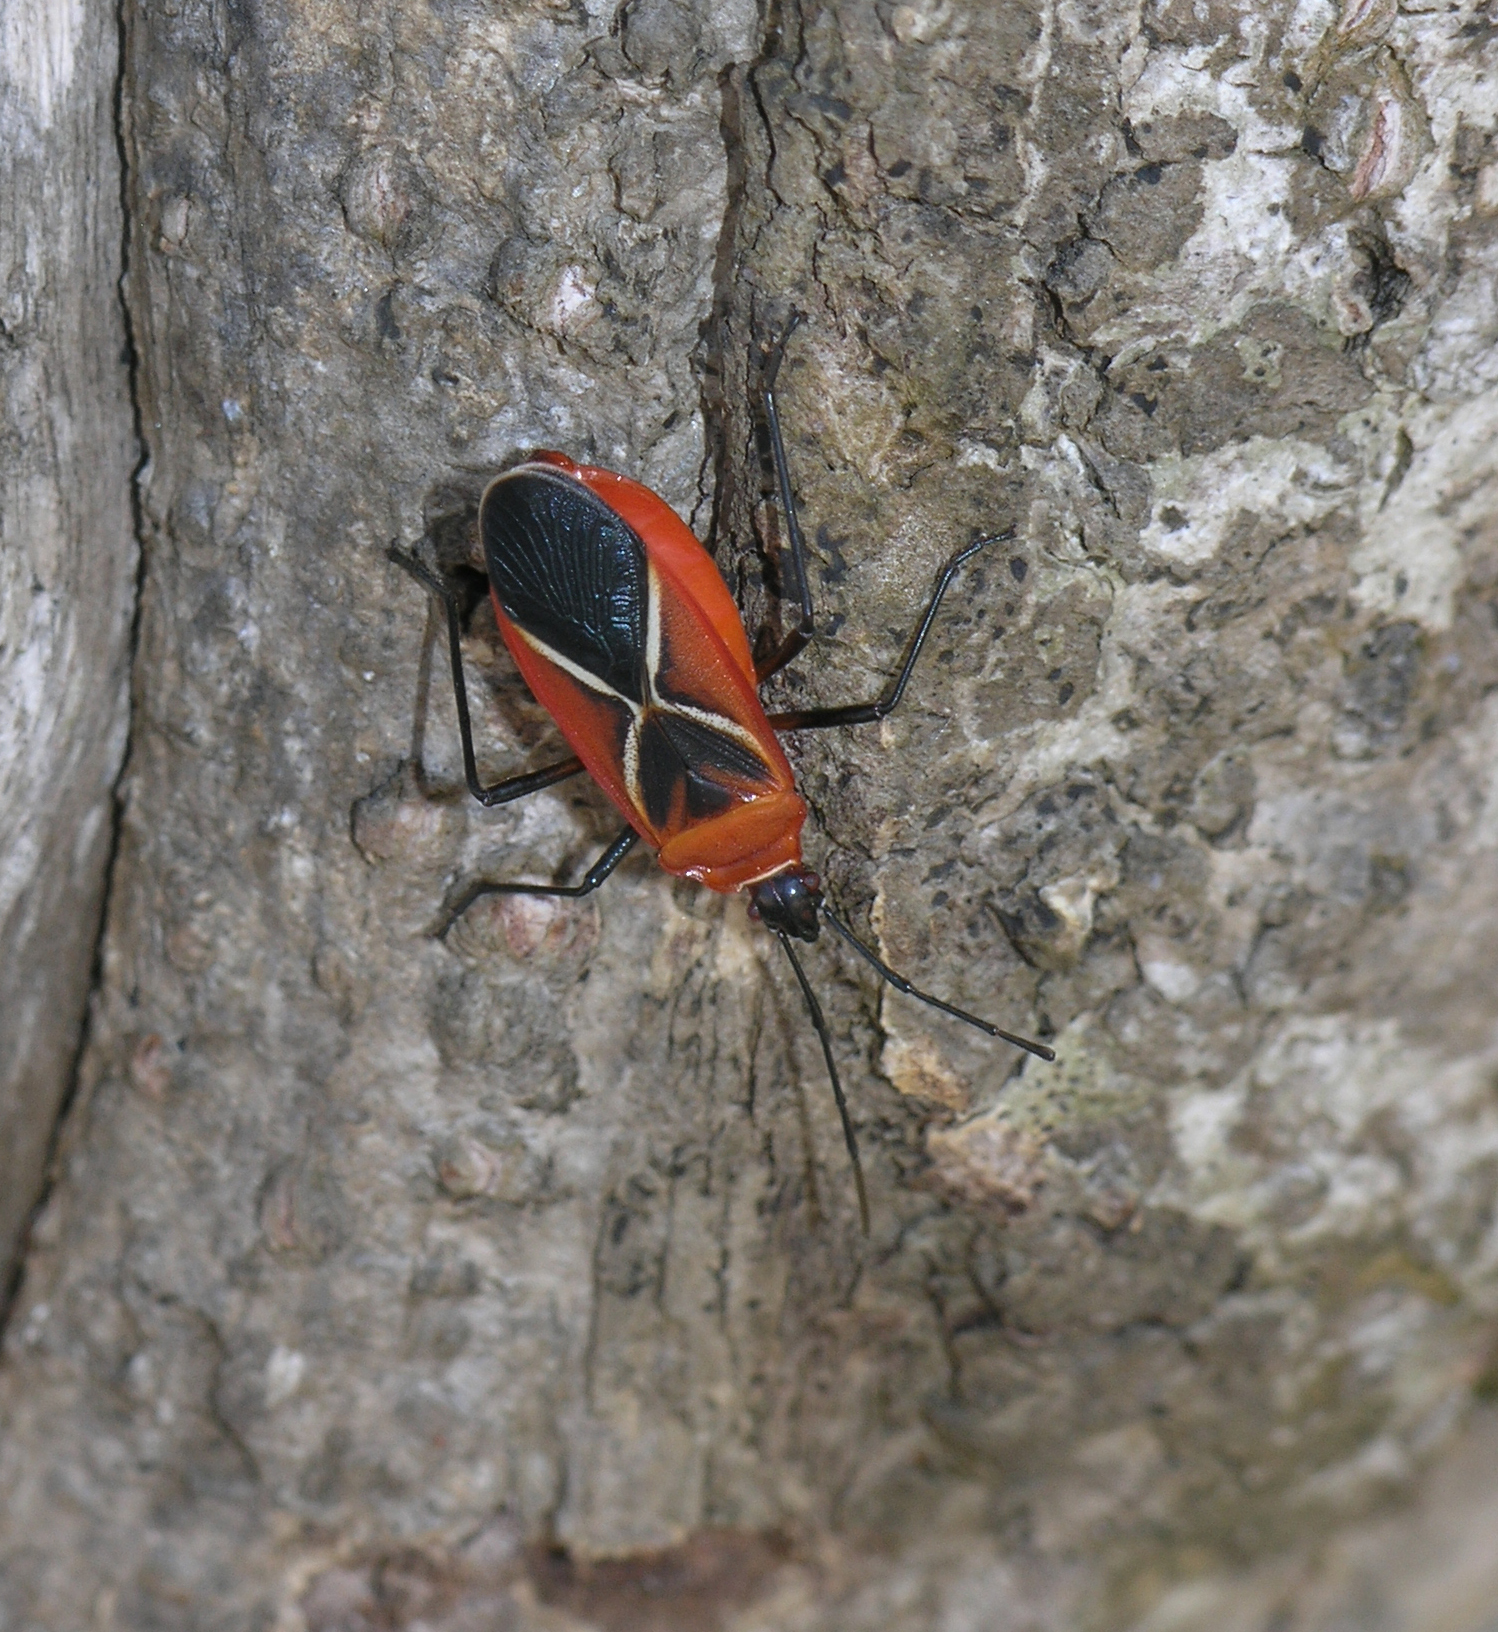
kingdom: Animalia
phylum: Arthropoda
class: Insecta
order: Hemiptera
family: Pyrrhocoridae
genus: Dysdercus
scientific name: Dysdercus decussatus
